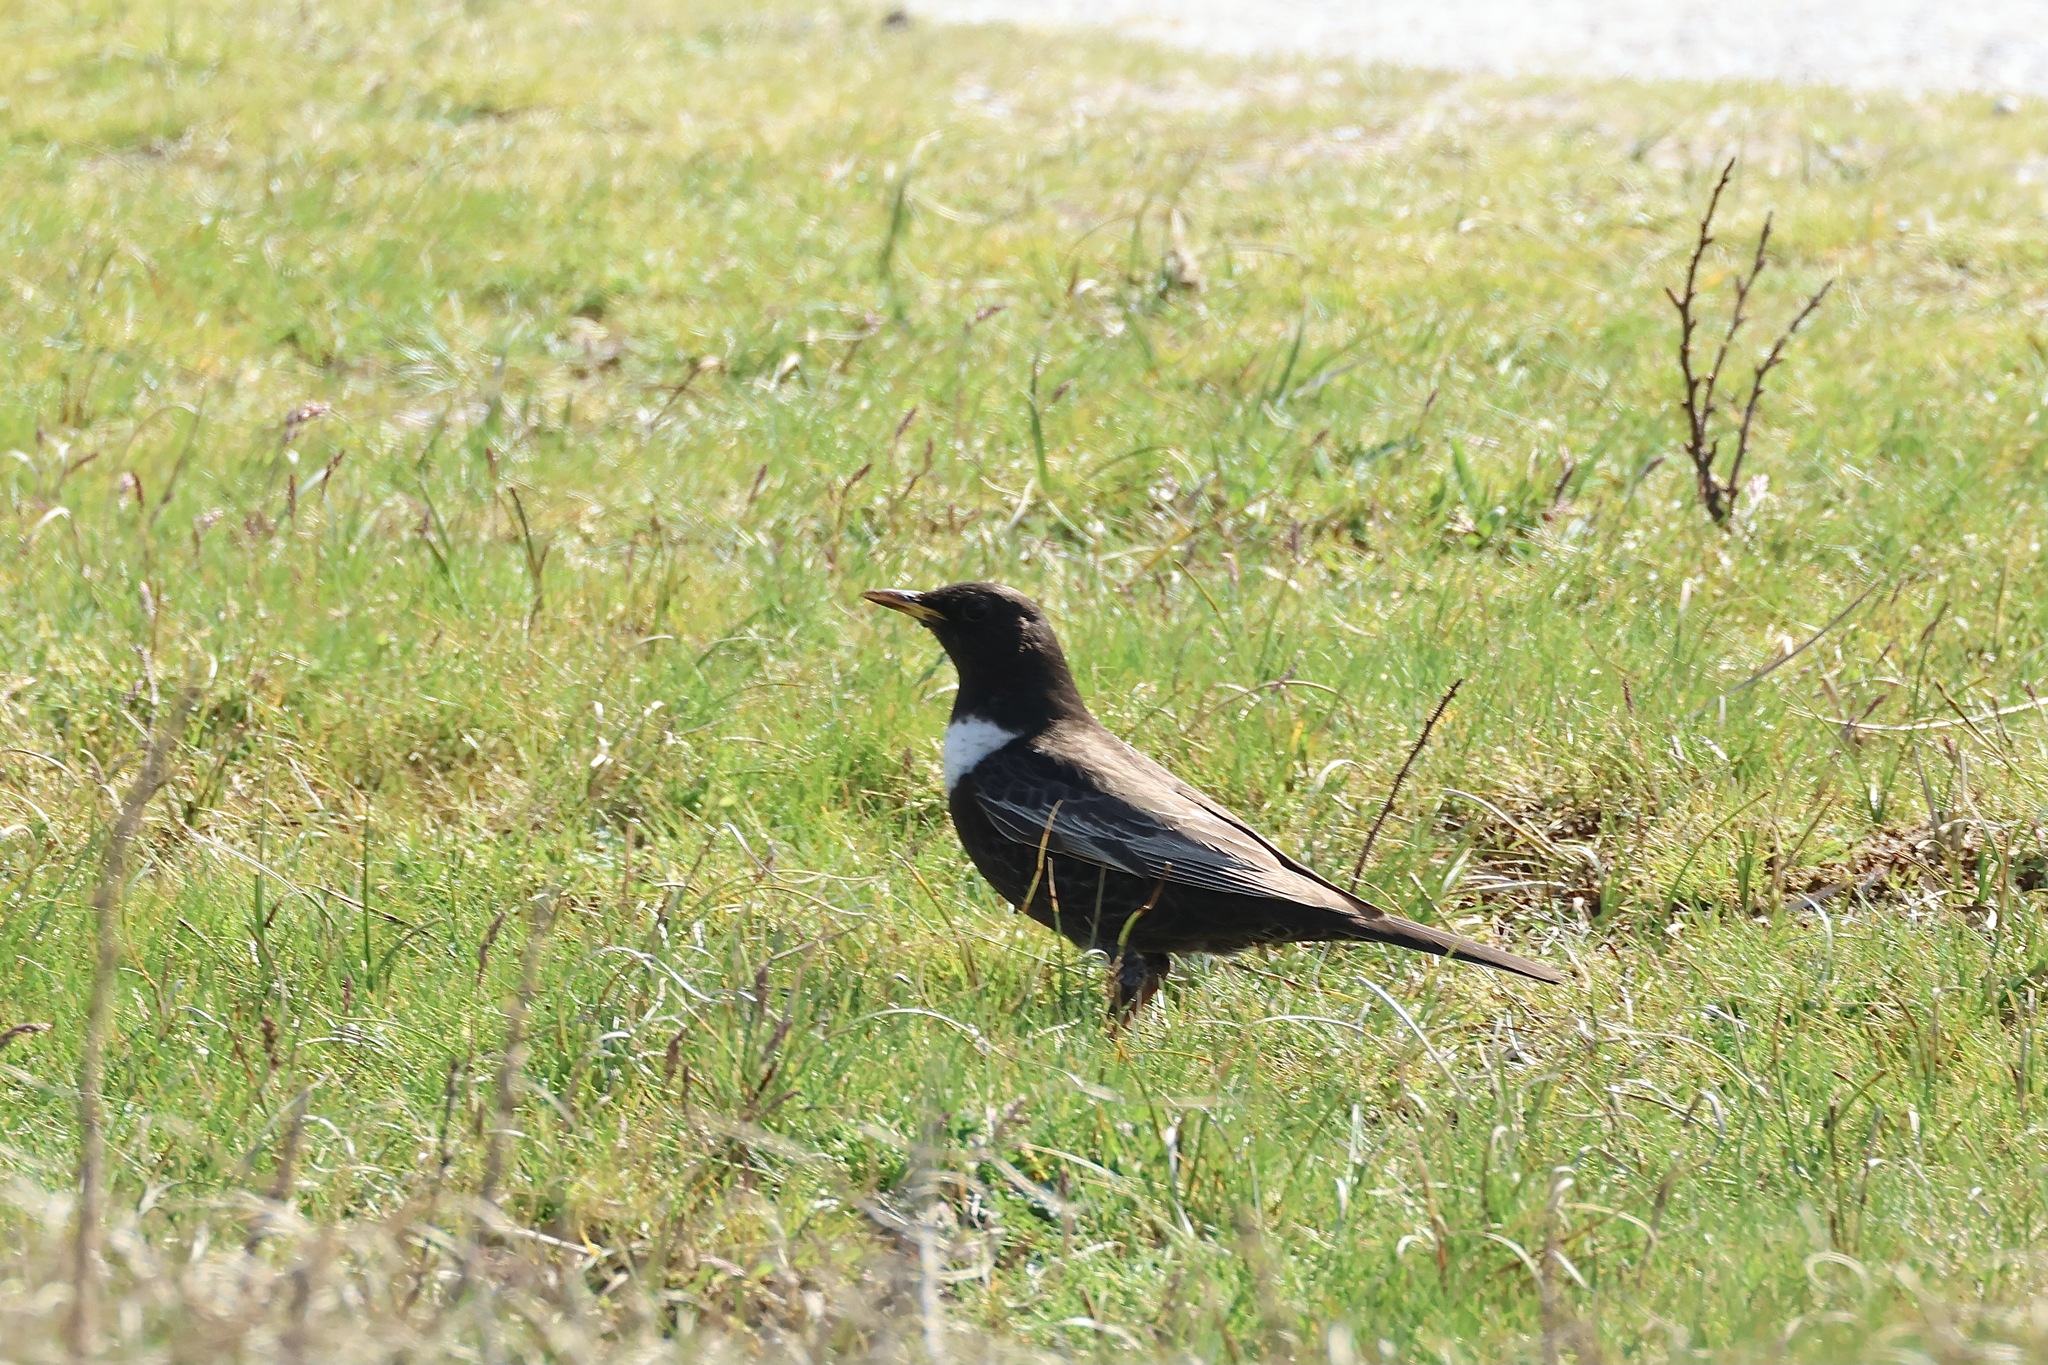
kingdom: Animalia
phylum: Chordata
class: Aves
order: Passeriformes
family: Turdidae
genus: Turdus
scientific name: Turdus torquatus
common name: Ring ouzel
